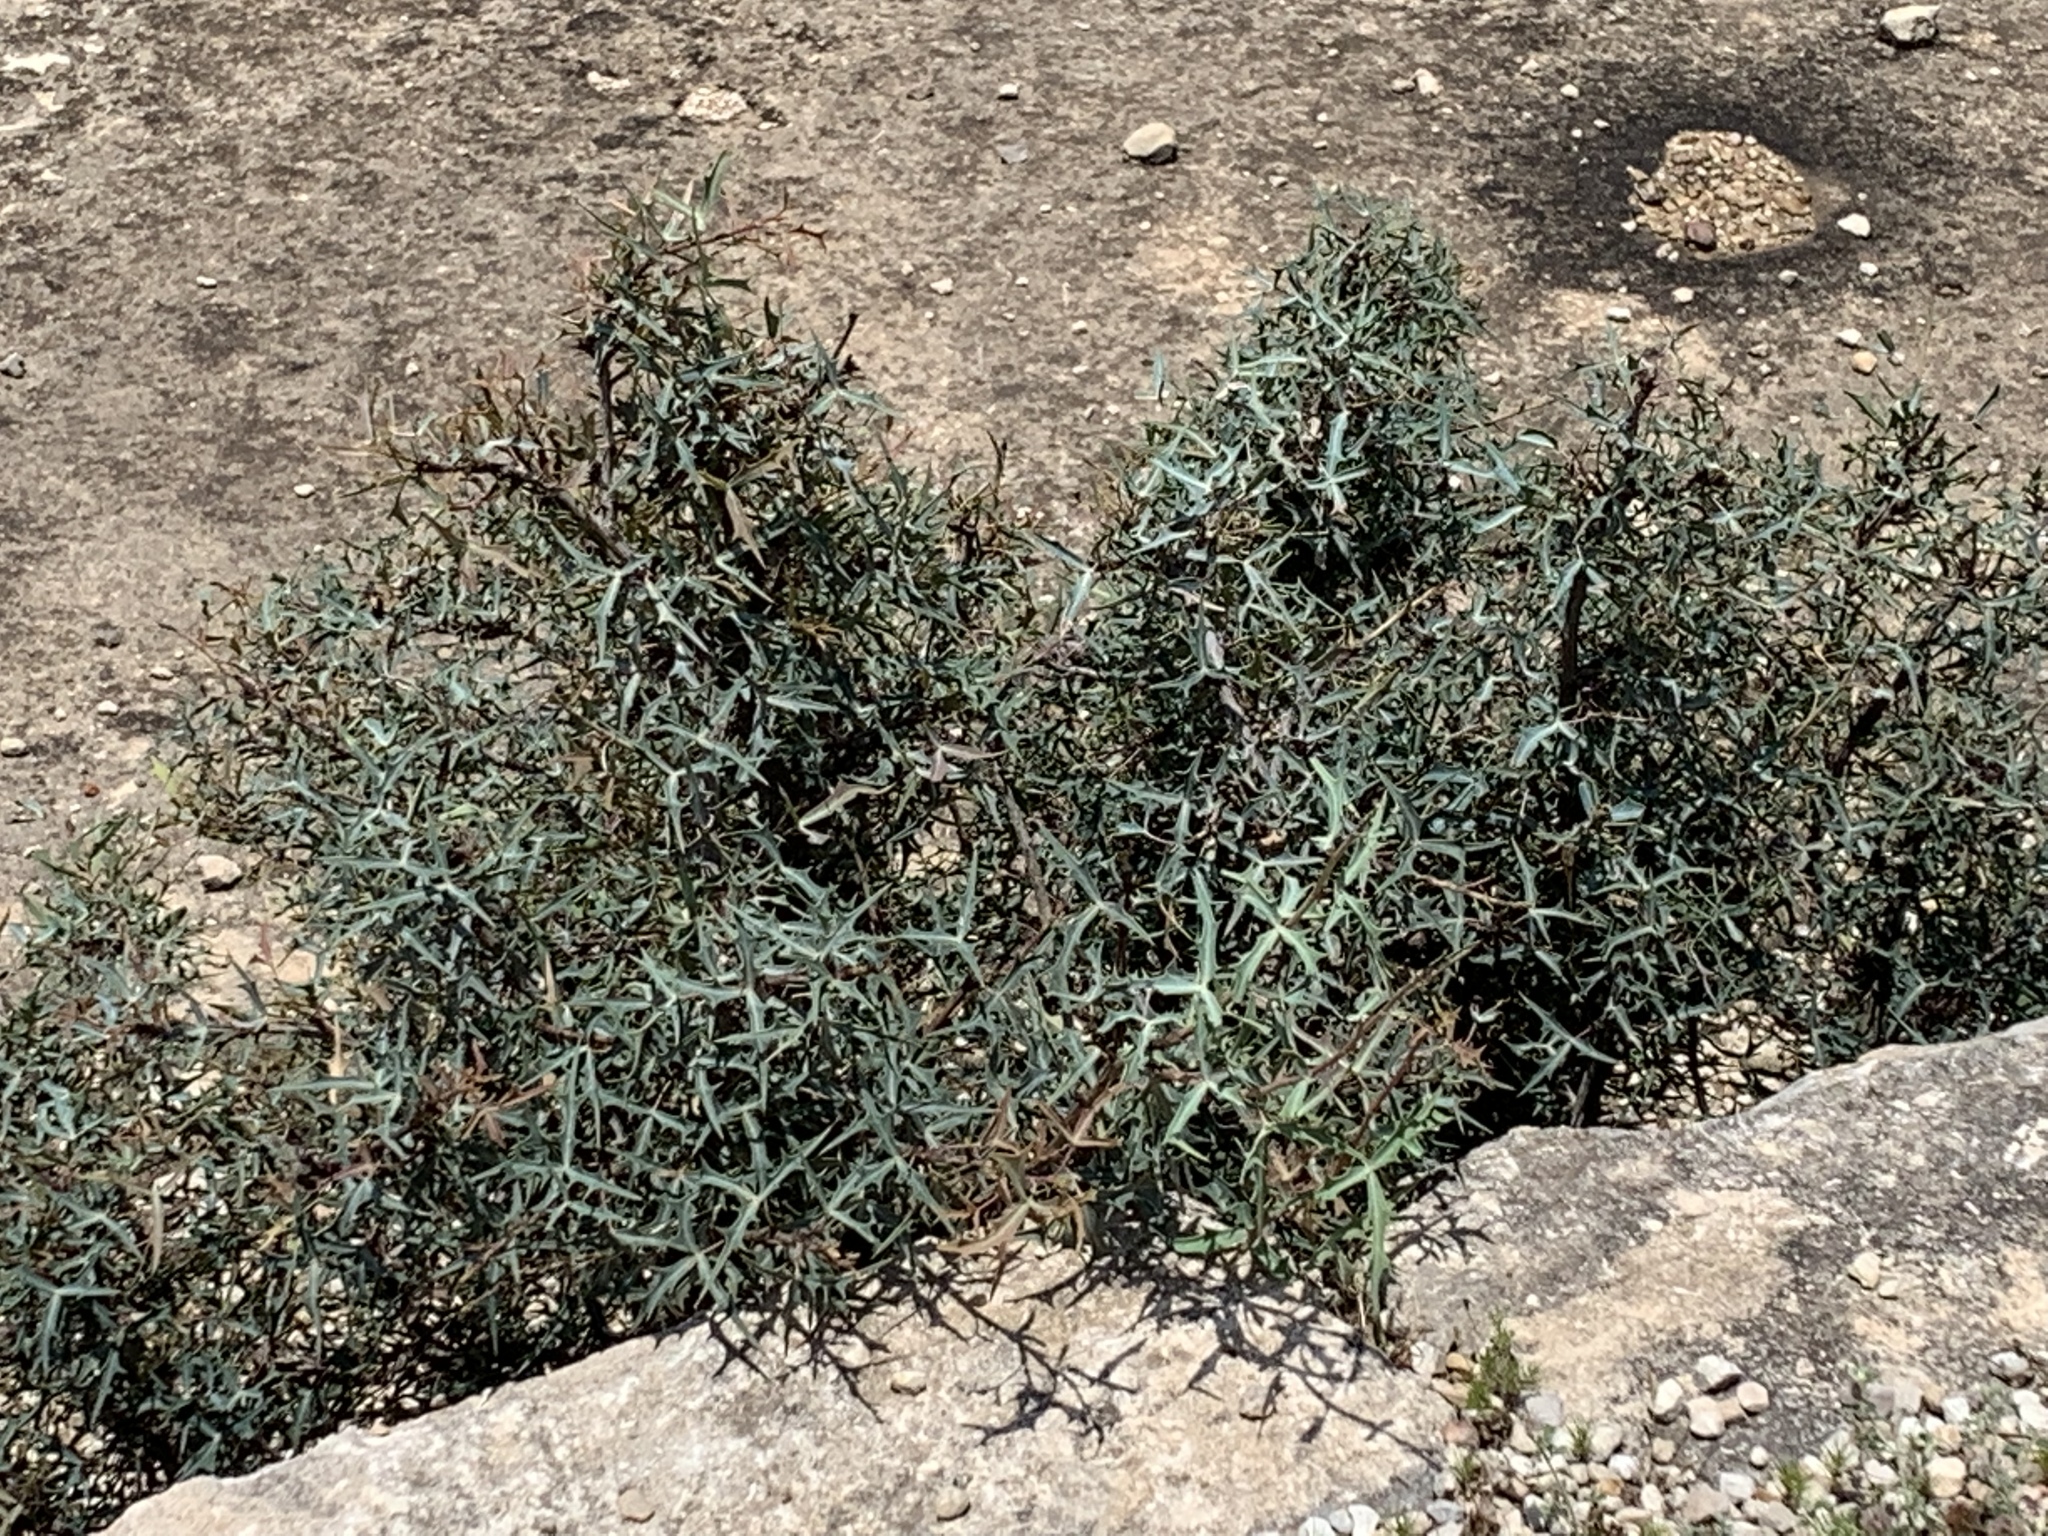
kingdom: Plantae
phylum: Tracheophyta
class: Magnoliopsida
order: Ranunculales
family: Berberidaceae
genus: Alloberberis
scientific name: Alloberberis trifoliolata
